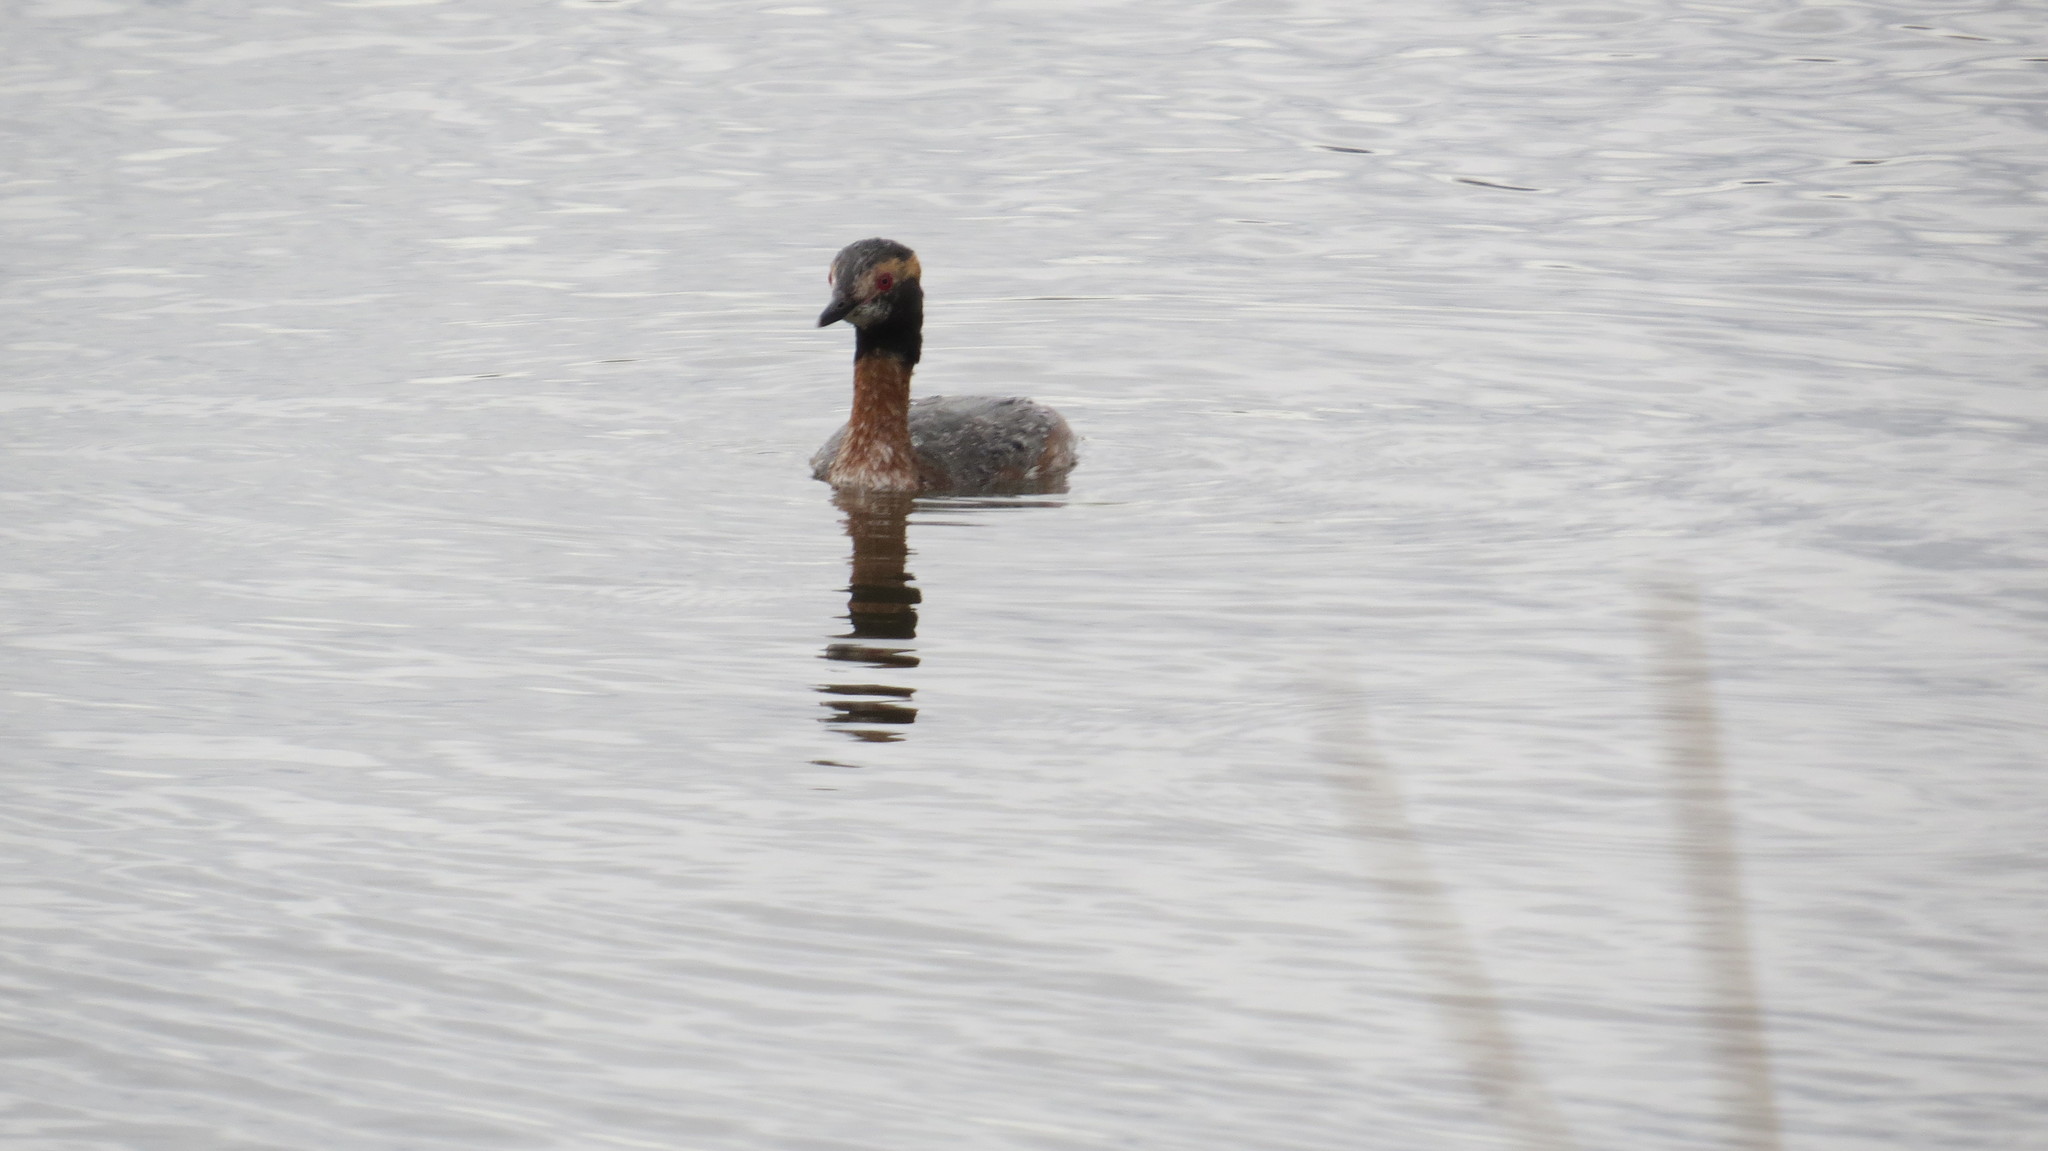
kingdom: Animalia
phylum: Chordata
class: Aves
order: Podicipediformes
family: Podicipedidae
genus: Podiceps
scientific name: Podiceps auritus
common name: Horned grebe
